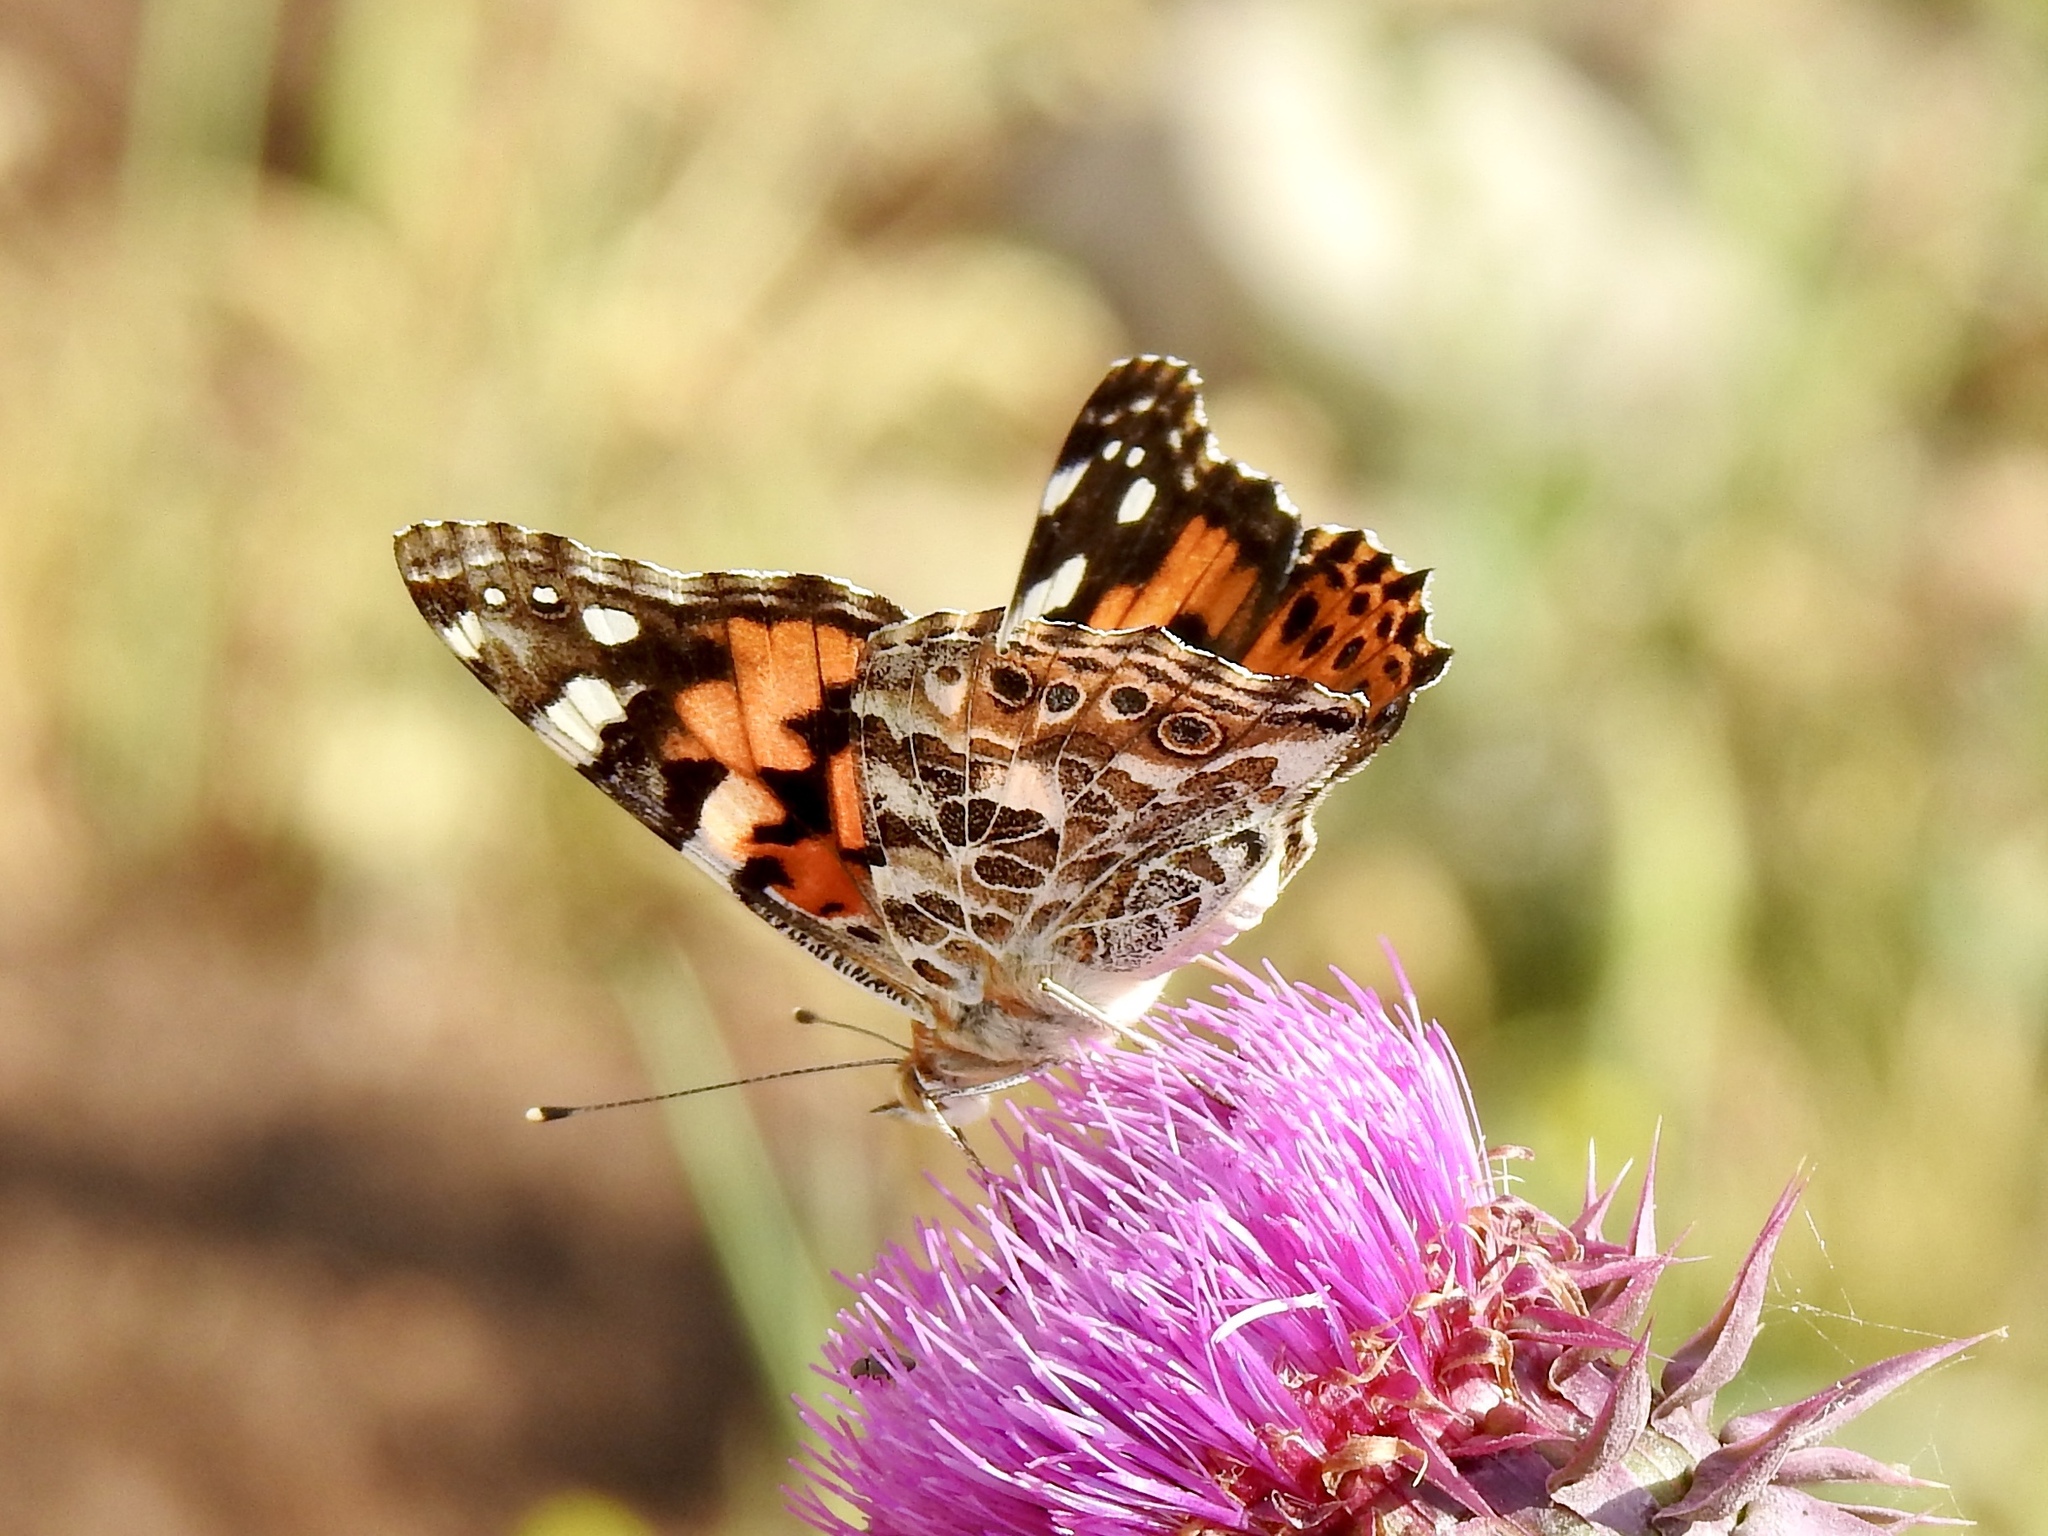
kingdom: Animalia
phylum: Arthropoda
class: Insecta
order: Lepidoptera
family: Nymphalidae
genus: Vanessa
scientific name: Vanessa cardui
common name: Painted lady
